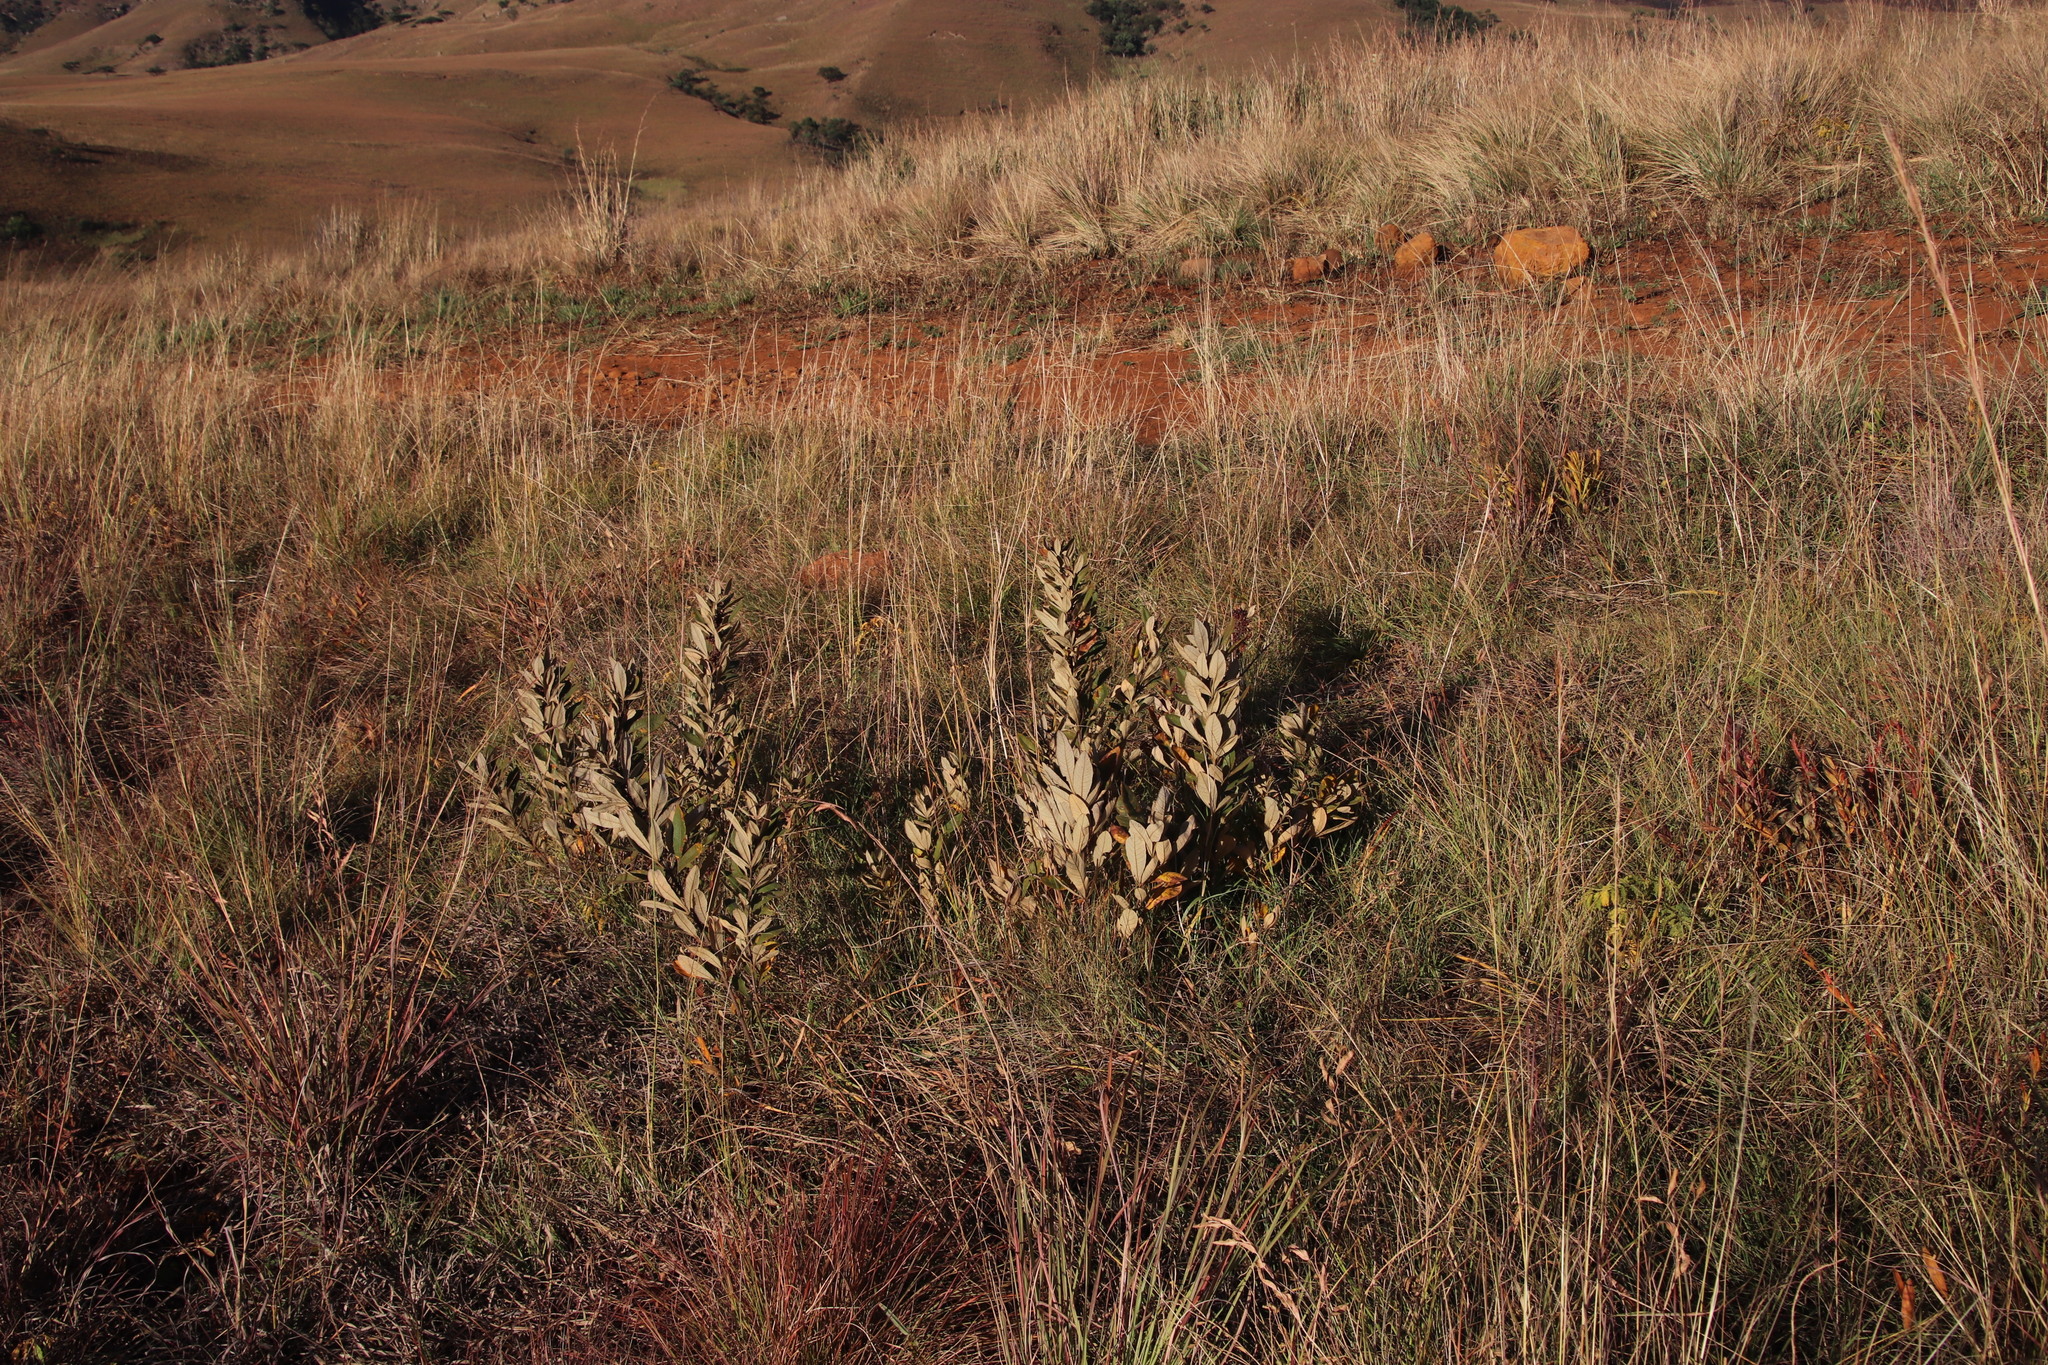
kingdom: Plantae
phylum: Tracheophyta
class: Magnoliopsida
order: Sapindales
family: Anacardiaceae
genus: Searsia
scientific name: Searsia discolor
